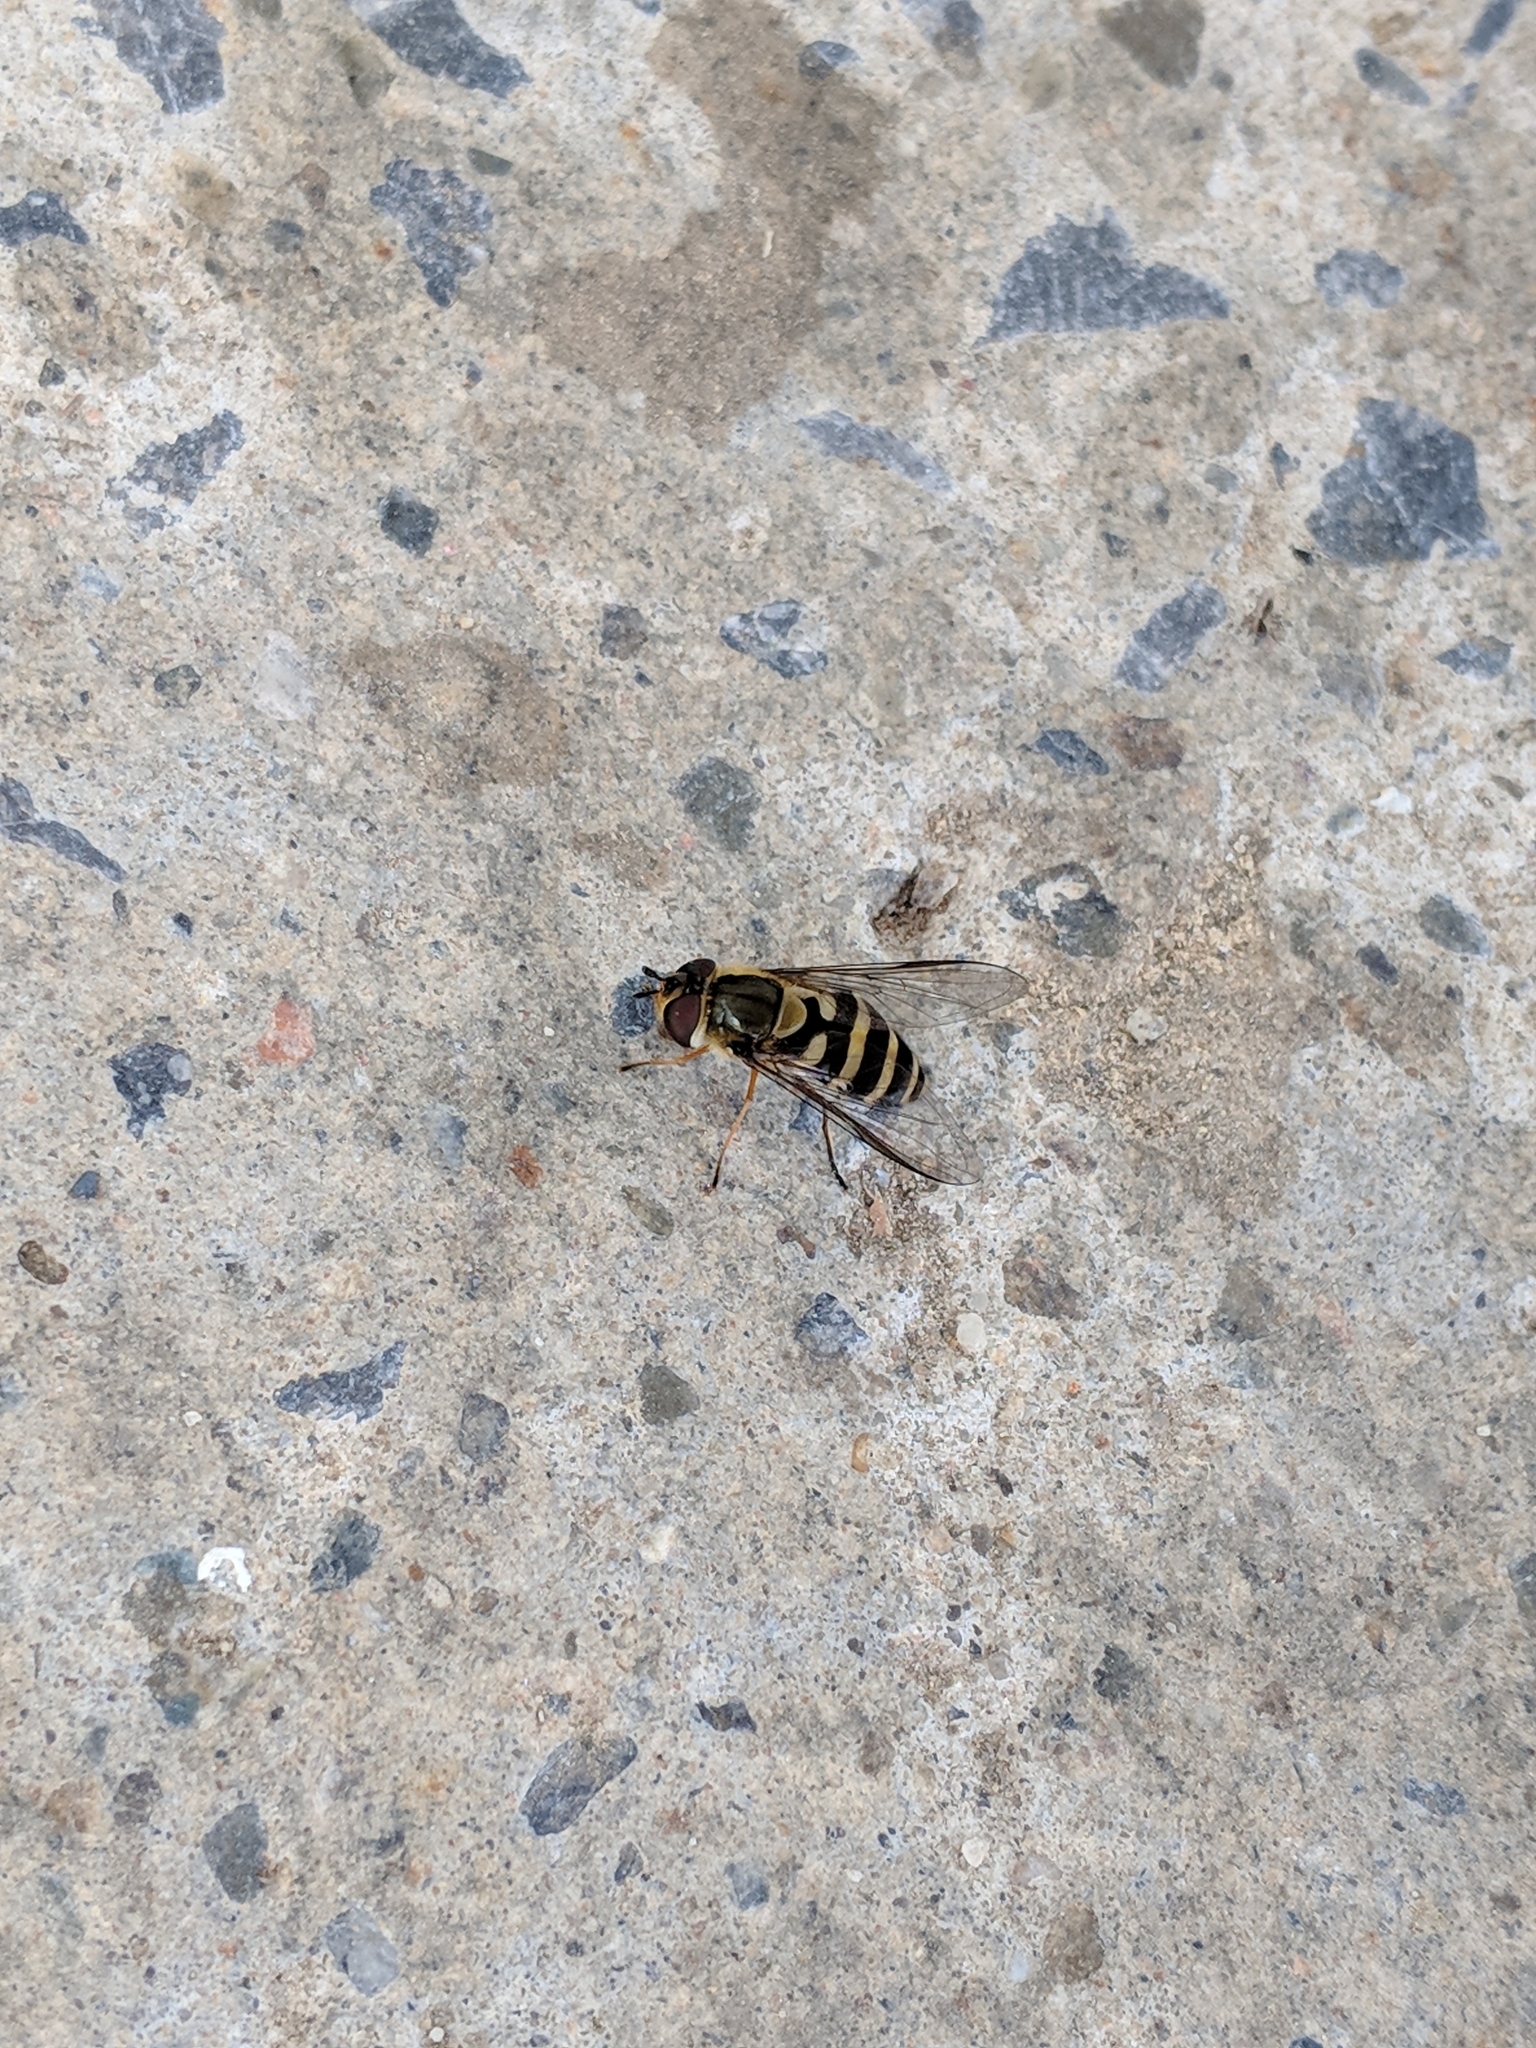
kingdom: Animalia
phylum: Arthropoda
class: Insecta
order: Diptera
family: Syrphidae
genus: Syrphus
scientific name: Syrphus
